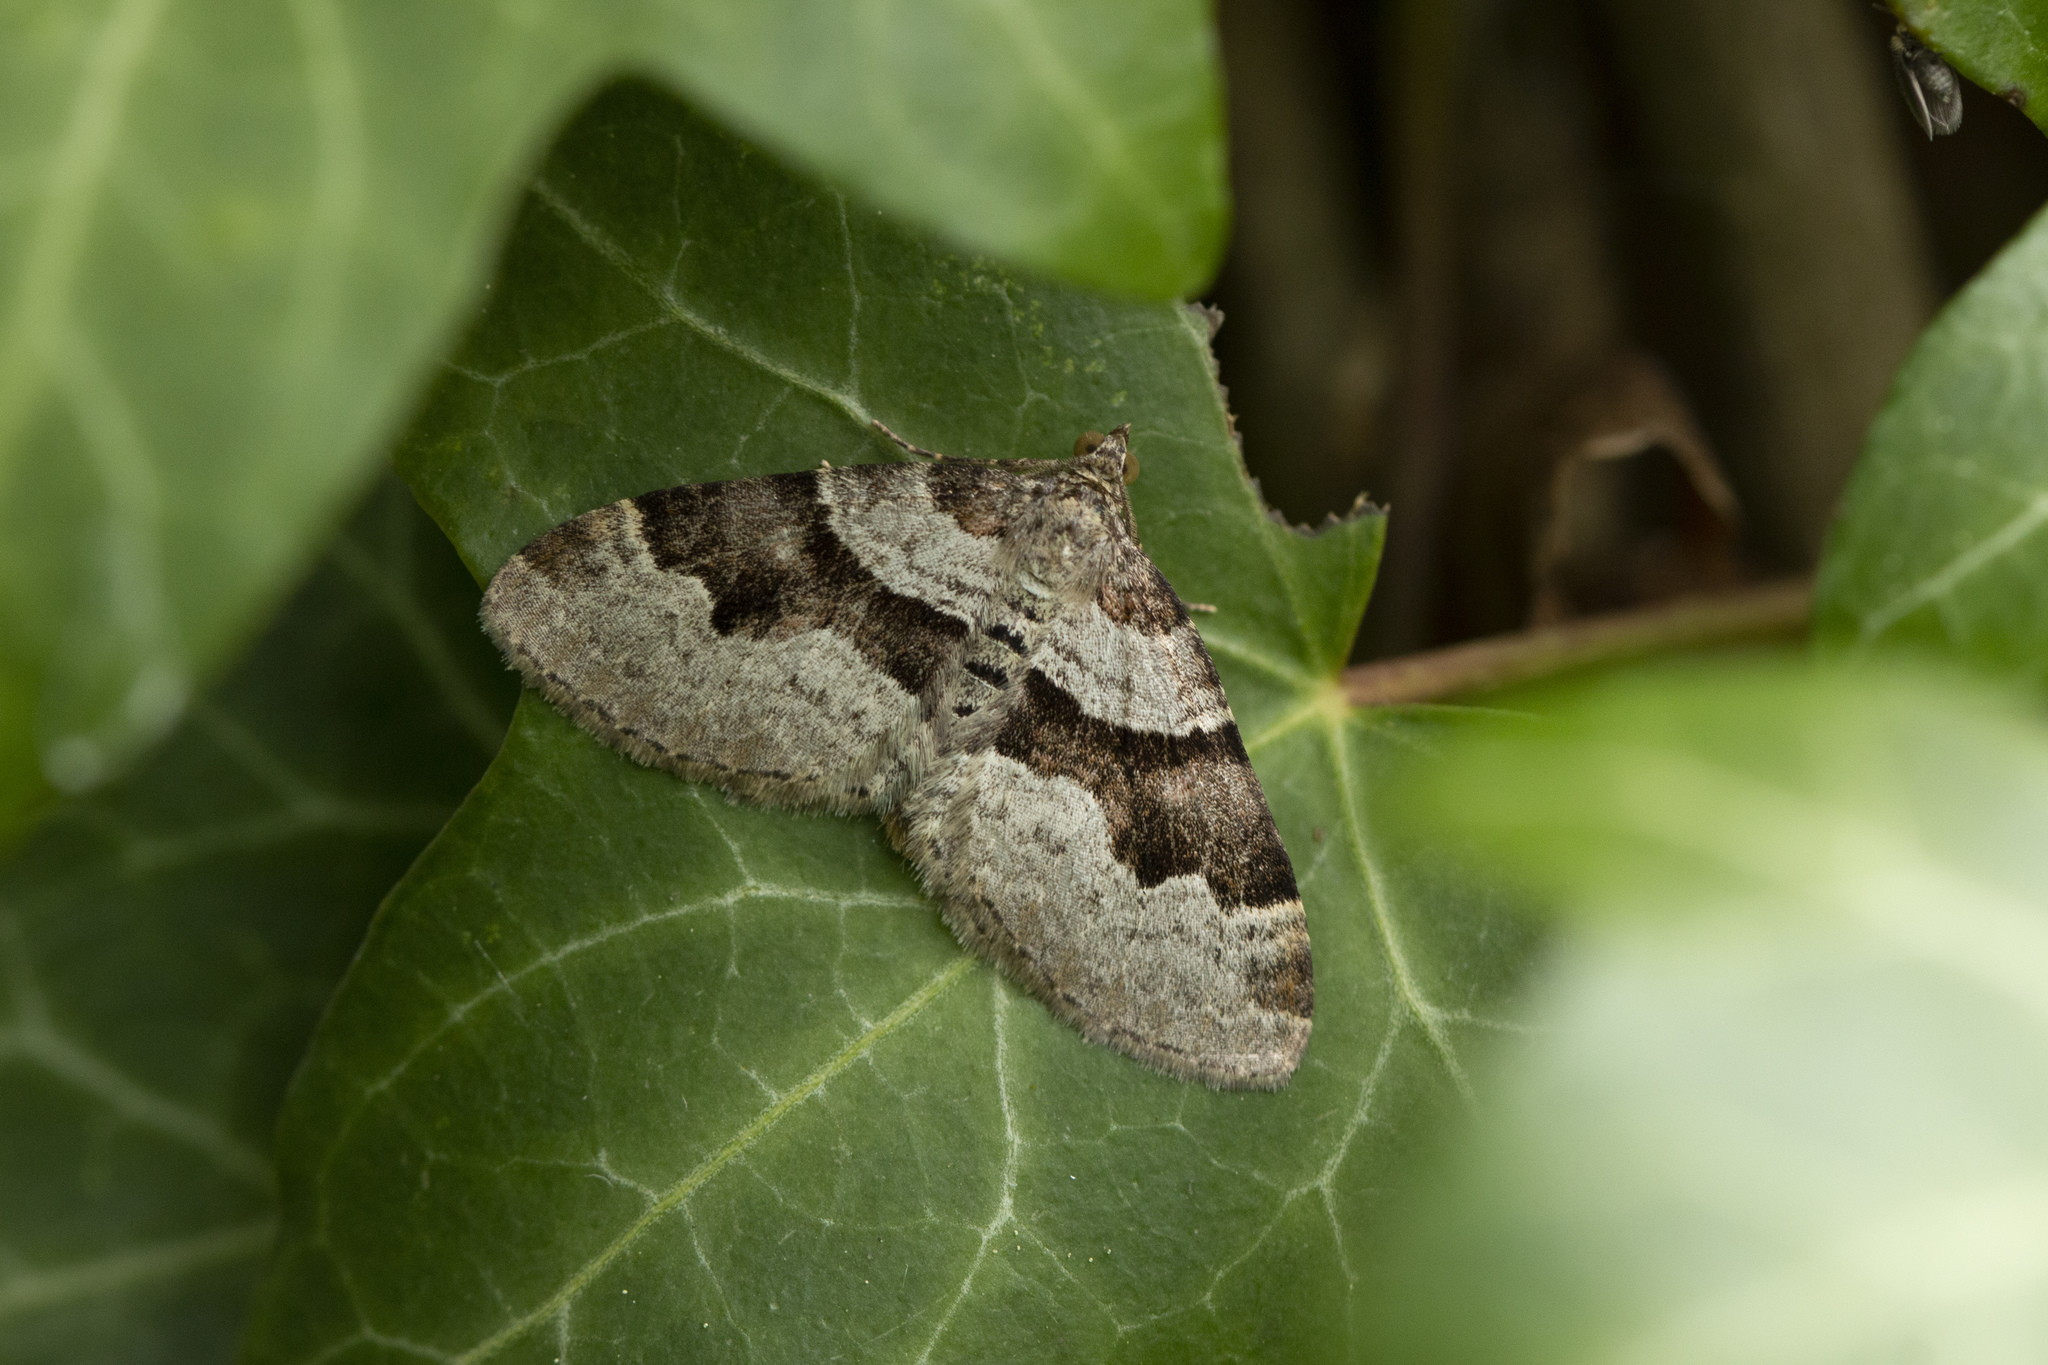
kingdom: Animalia
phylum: Arthropoda
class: Insecta
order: Lepidoptera
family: Geometridae
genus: Xanthorhoe
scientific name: Xanthorhoe designata
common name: Flame carpet
